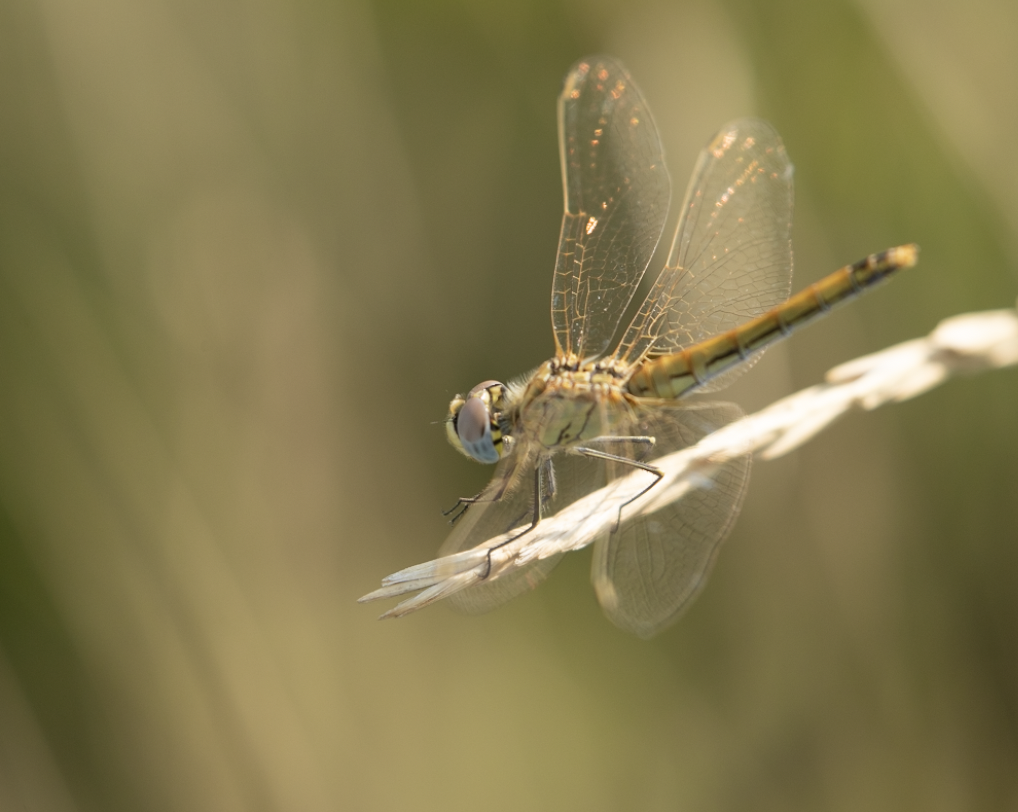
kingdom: Animalia
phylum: Arthropoda
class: Insecta
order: Odonata
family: Libellulidae
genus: Sympetrum
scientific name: Sympetrum fonscolombii
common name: Red-veined darter
